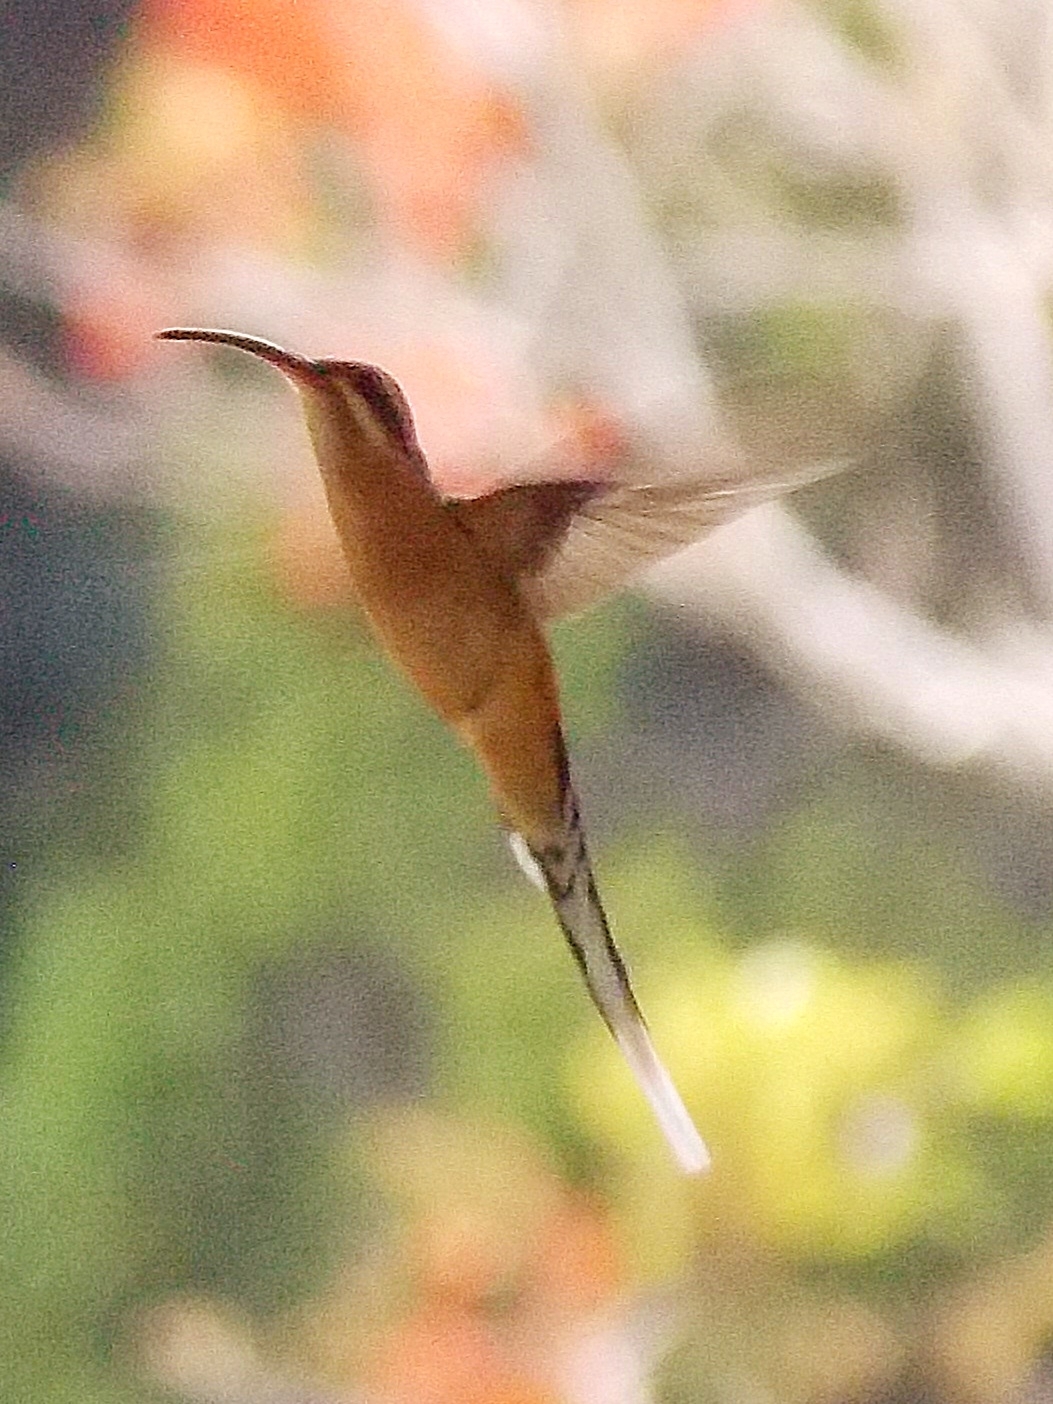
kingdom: Animalia
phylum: Chordata
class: Aves
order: Apodiformes
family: Trochilidae
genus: Phaethornis
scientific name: Phaethornis pretrei
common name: Planalto hermit
